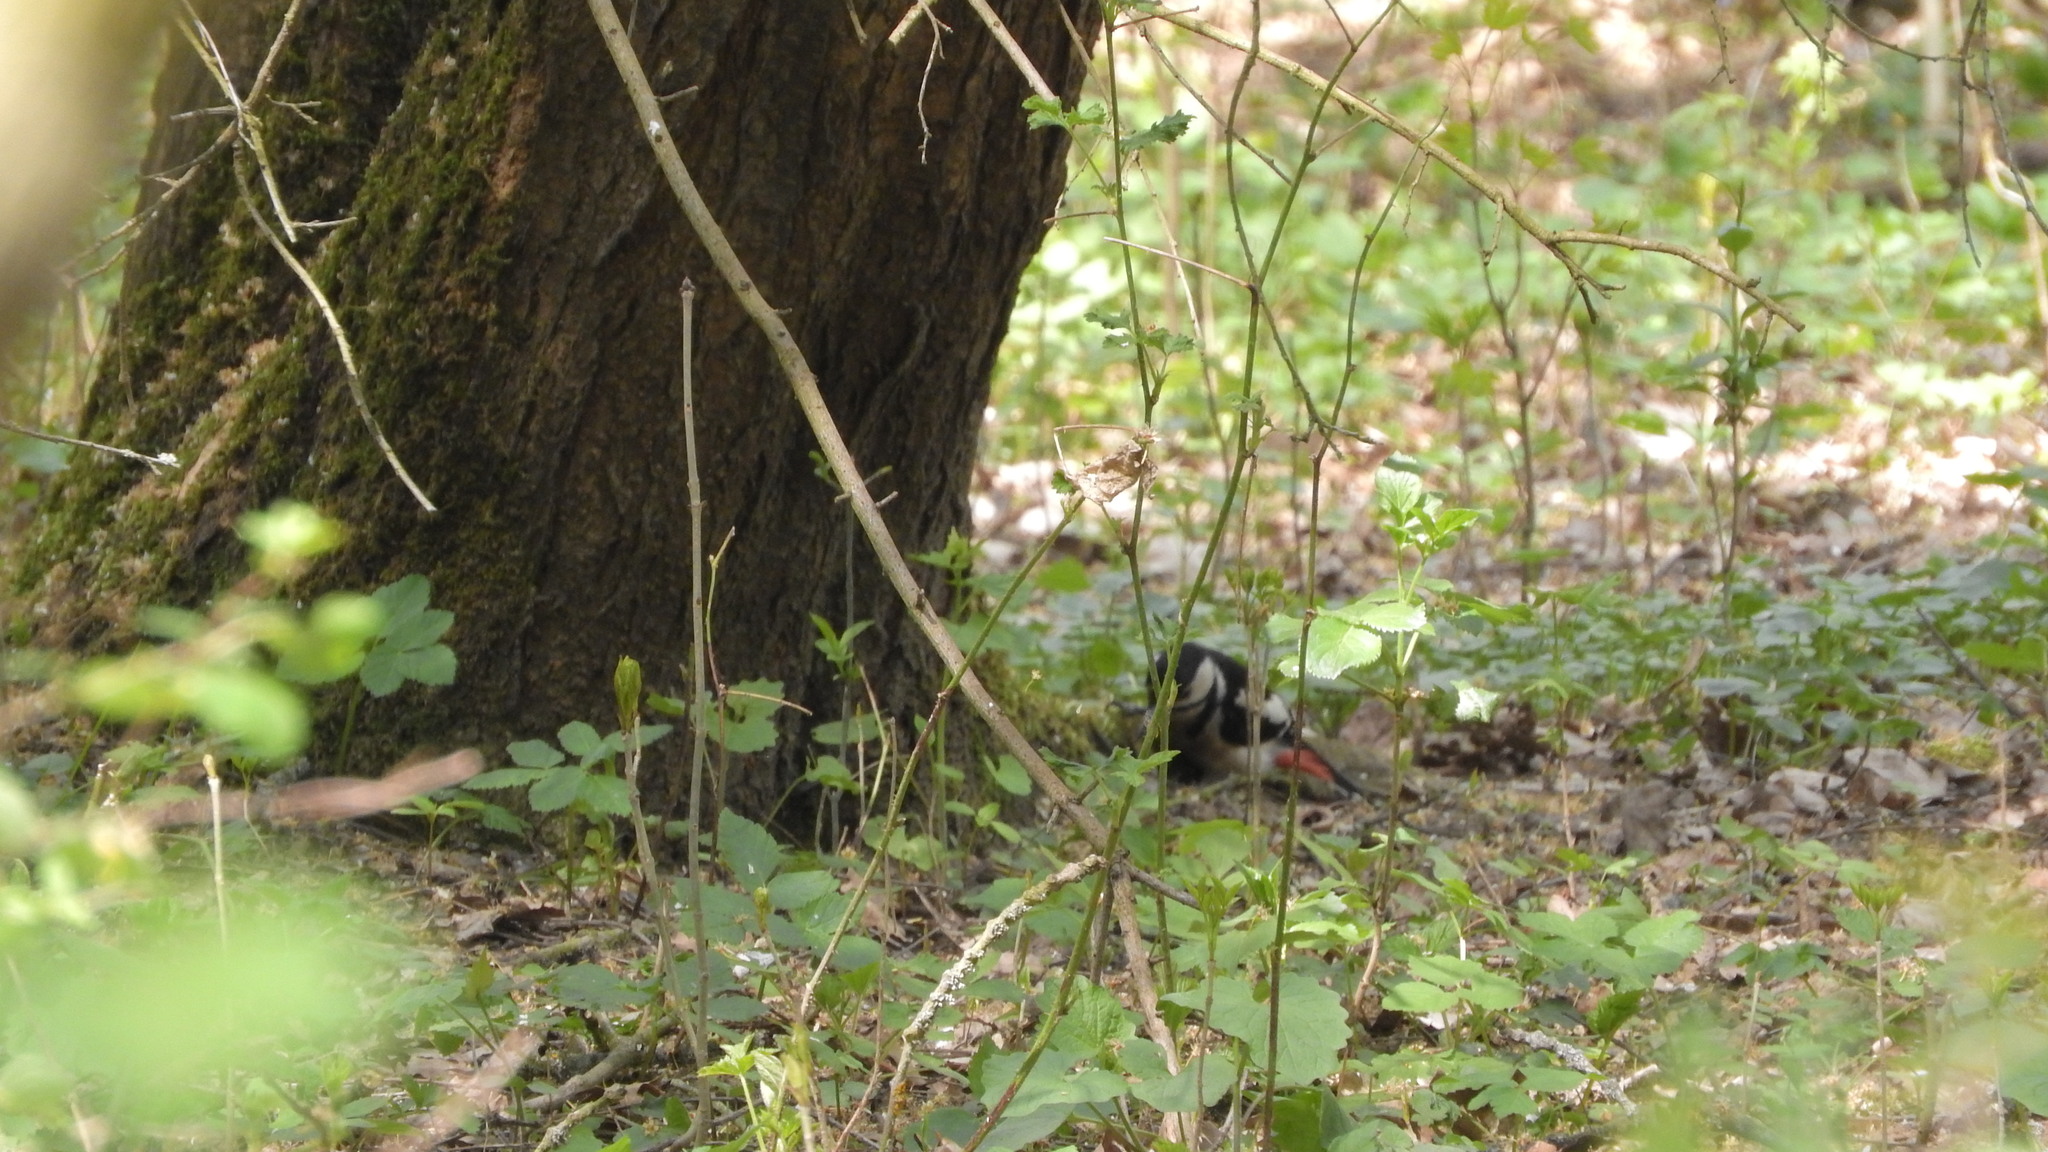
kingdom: Animalia
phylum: Chordata
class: Aves
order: Piciformes
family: Picidae
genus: Dendrocopos
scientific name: Dendrocopos major
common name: Great spotted woodpecker
